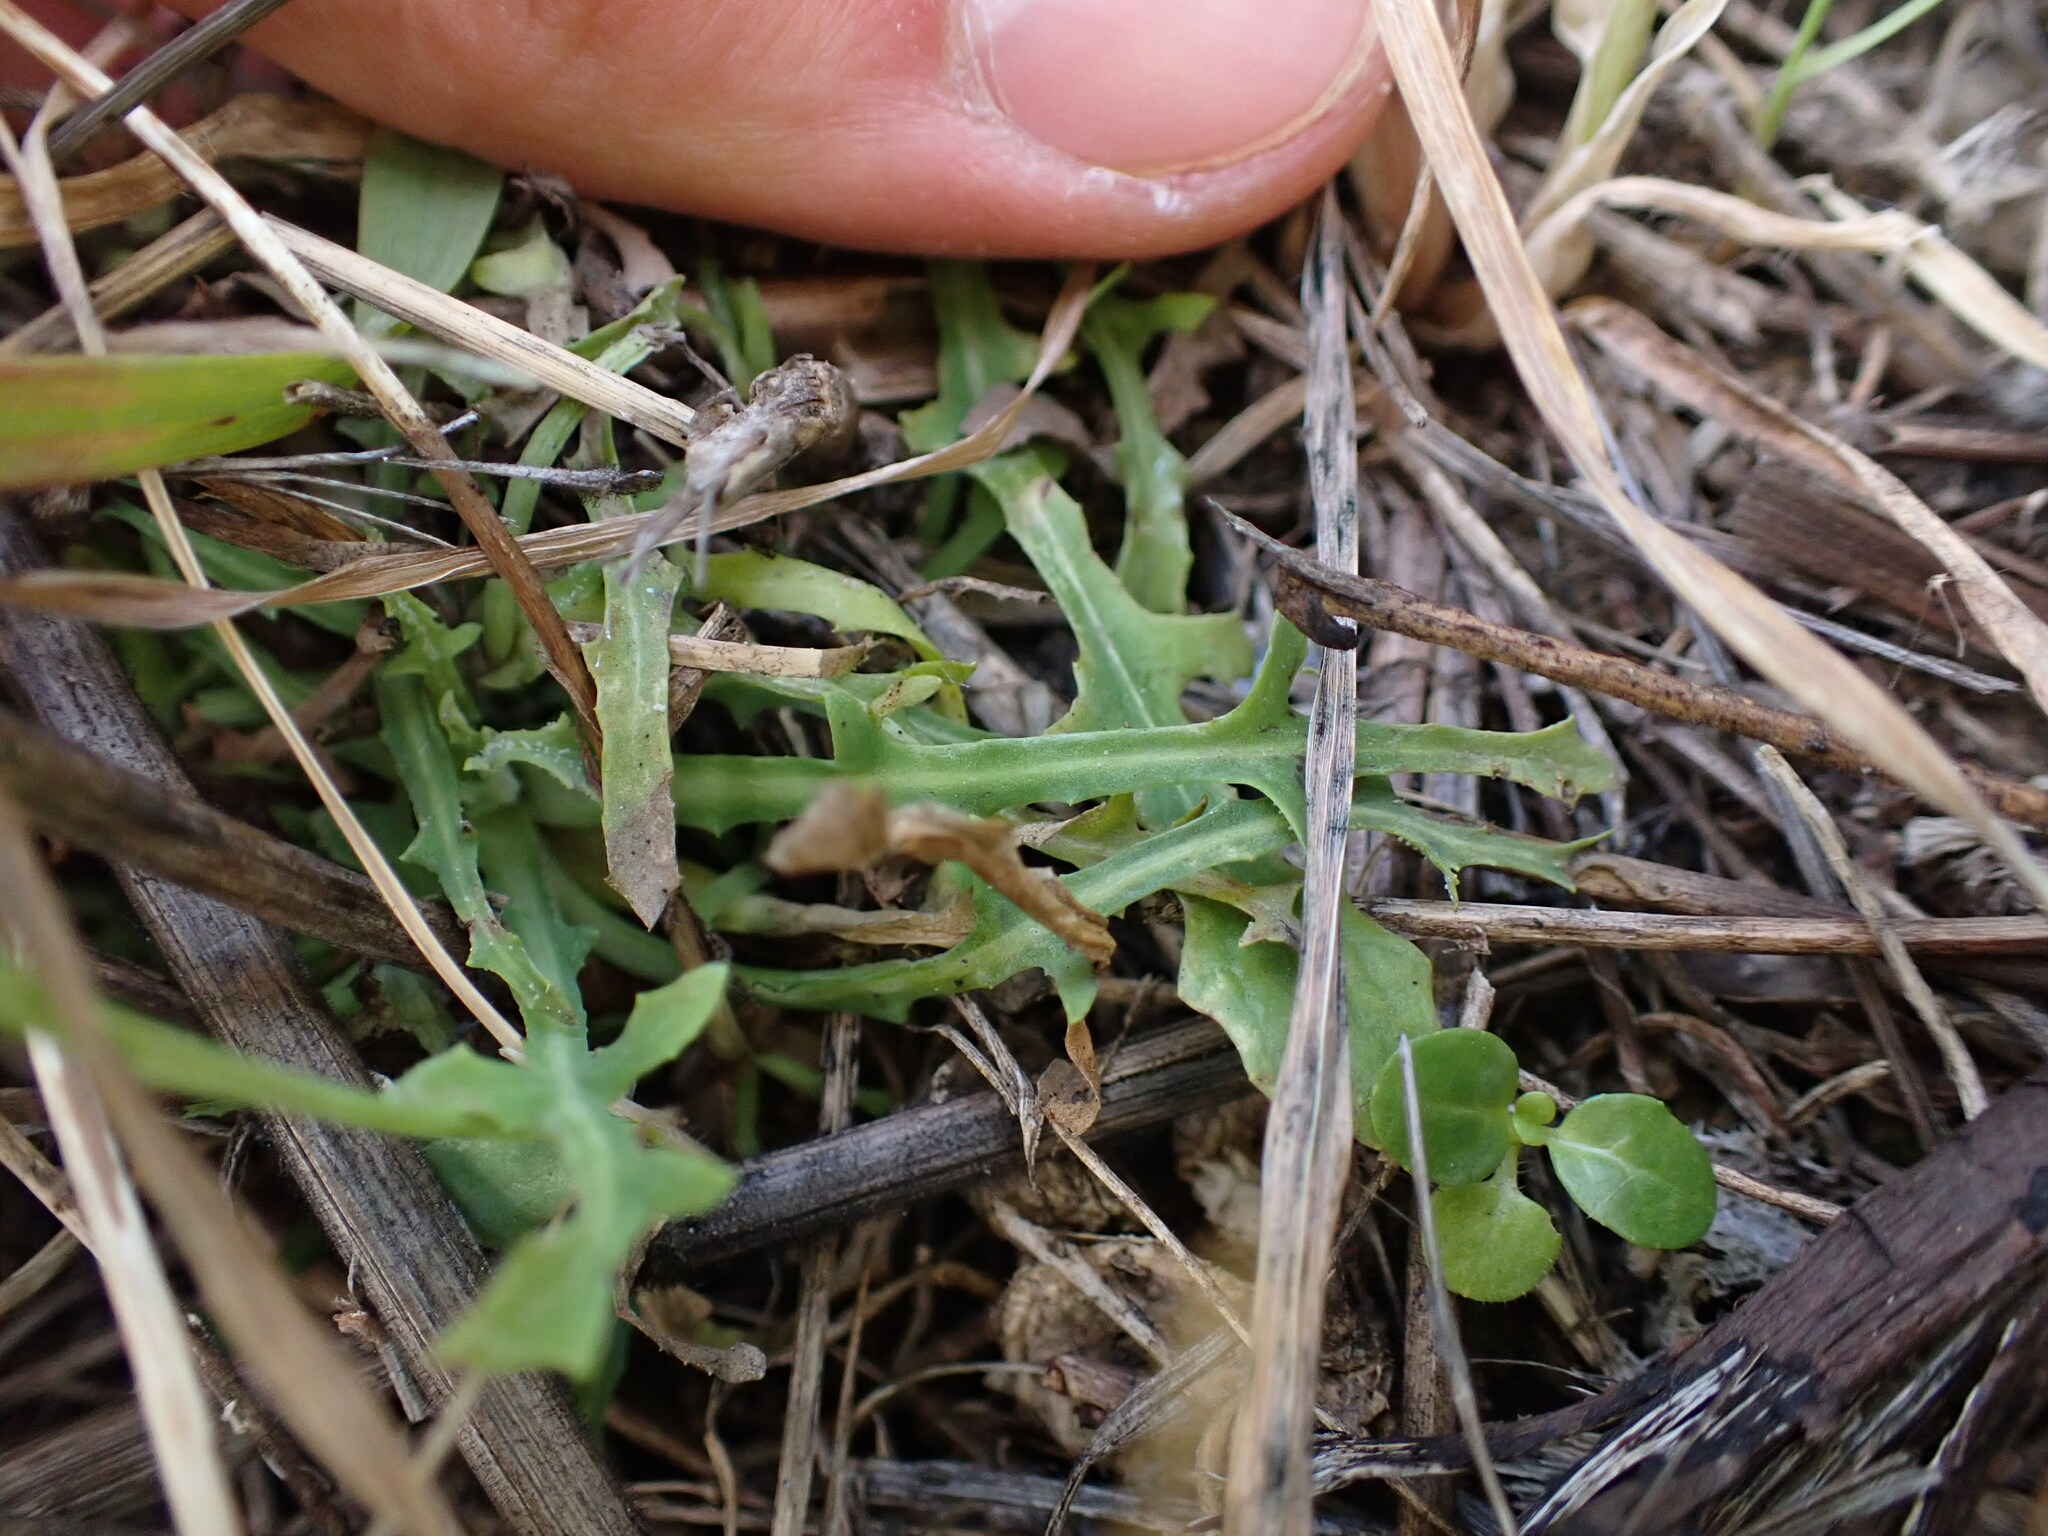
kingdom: Plantae
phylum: Tracheophyta
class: Magnoliopsida
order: Asterales
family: Asteraceae
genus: Reichardia
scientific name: Reichardia picroides
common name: Common brighteyes
